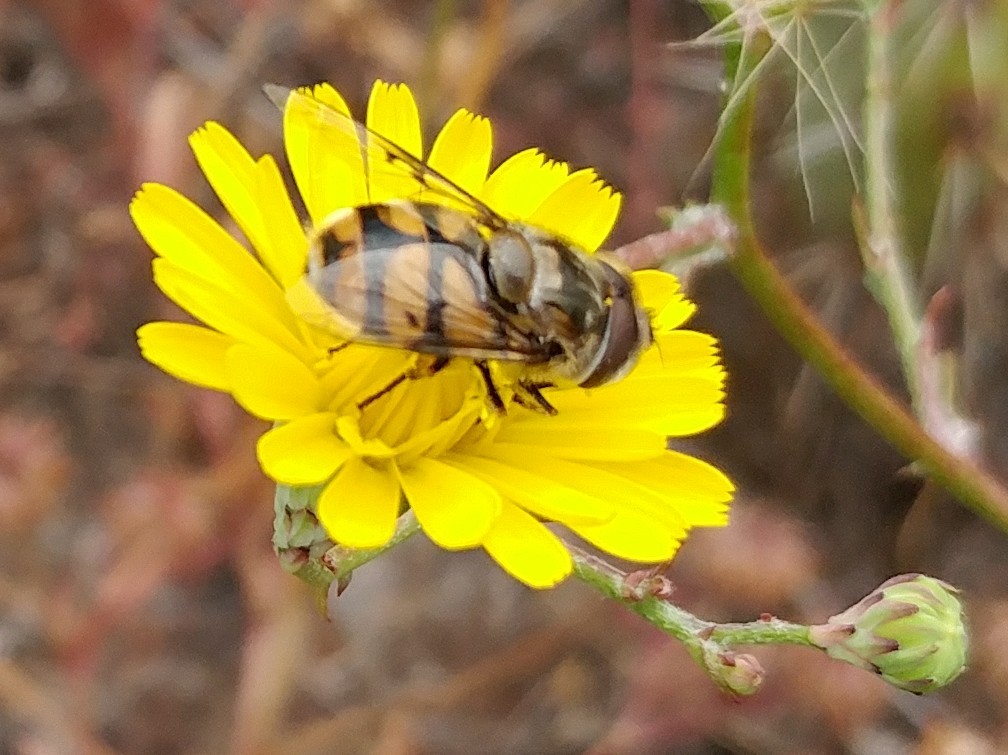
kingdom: Animalia
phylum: Arthropoda
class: Insecta
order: Diptera
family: Syrphidae
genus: Copestylum
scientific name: Copestylum avidum
